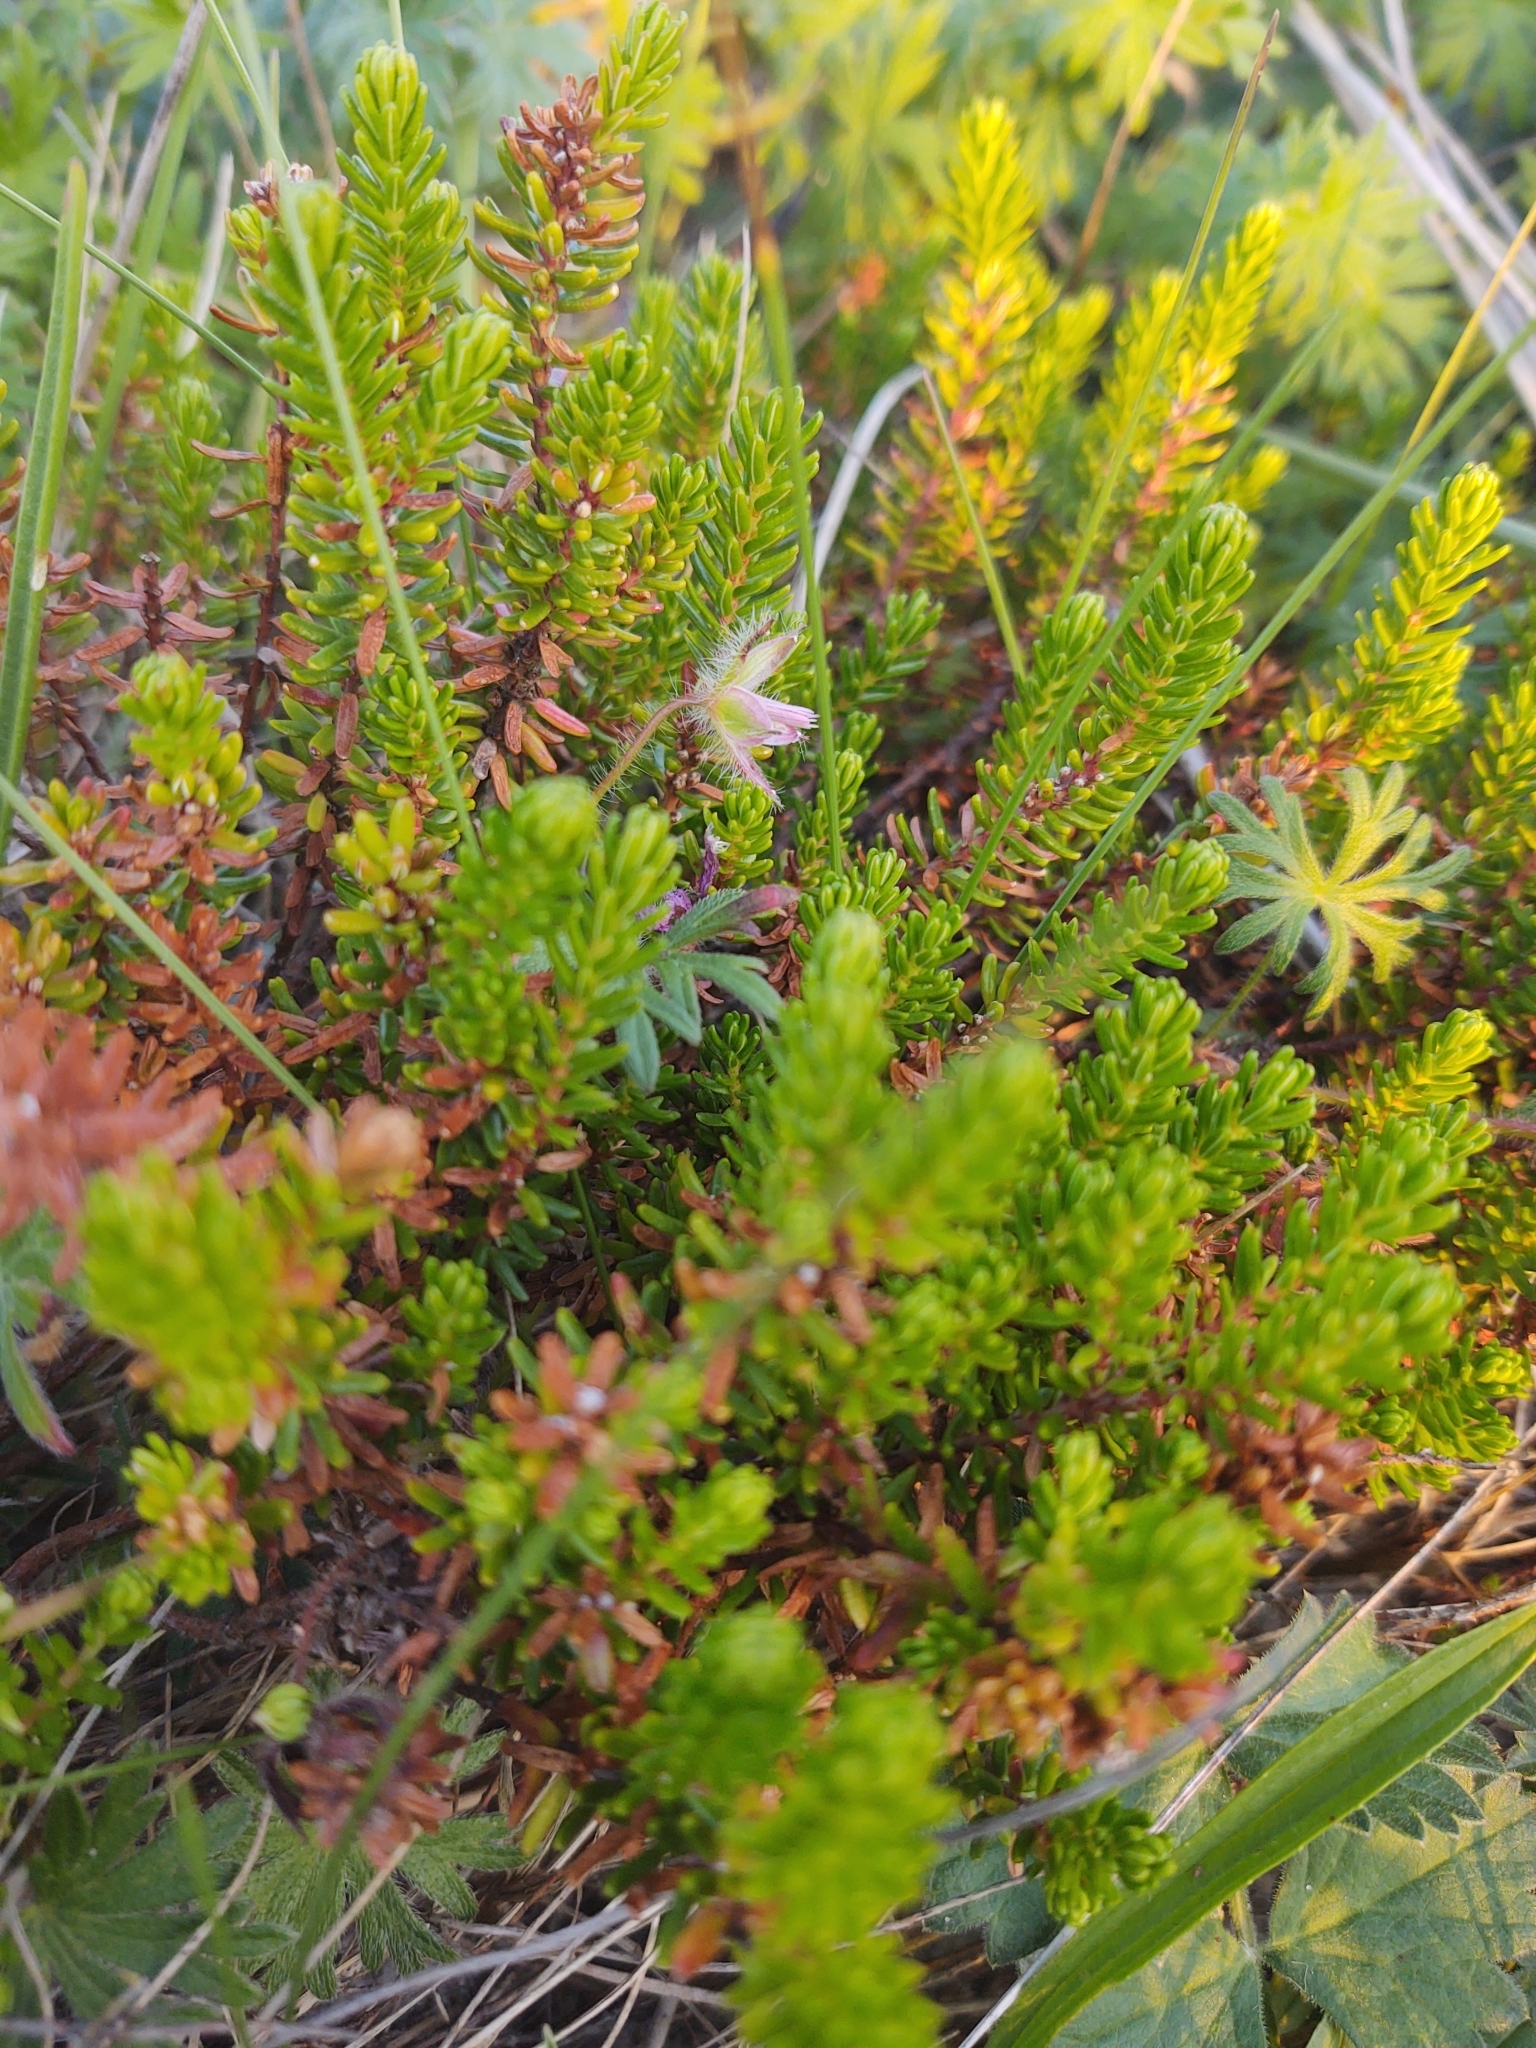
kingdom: Plantae
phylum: Tracheophyta
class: Magnoliopsida
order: Ericales
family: Ericaceae
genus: Empetrum
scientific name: Empetrum nigrum
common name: Black crowberry
